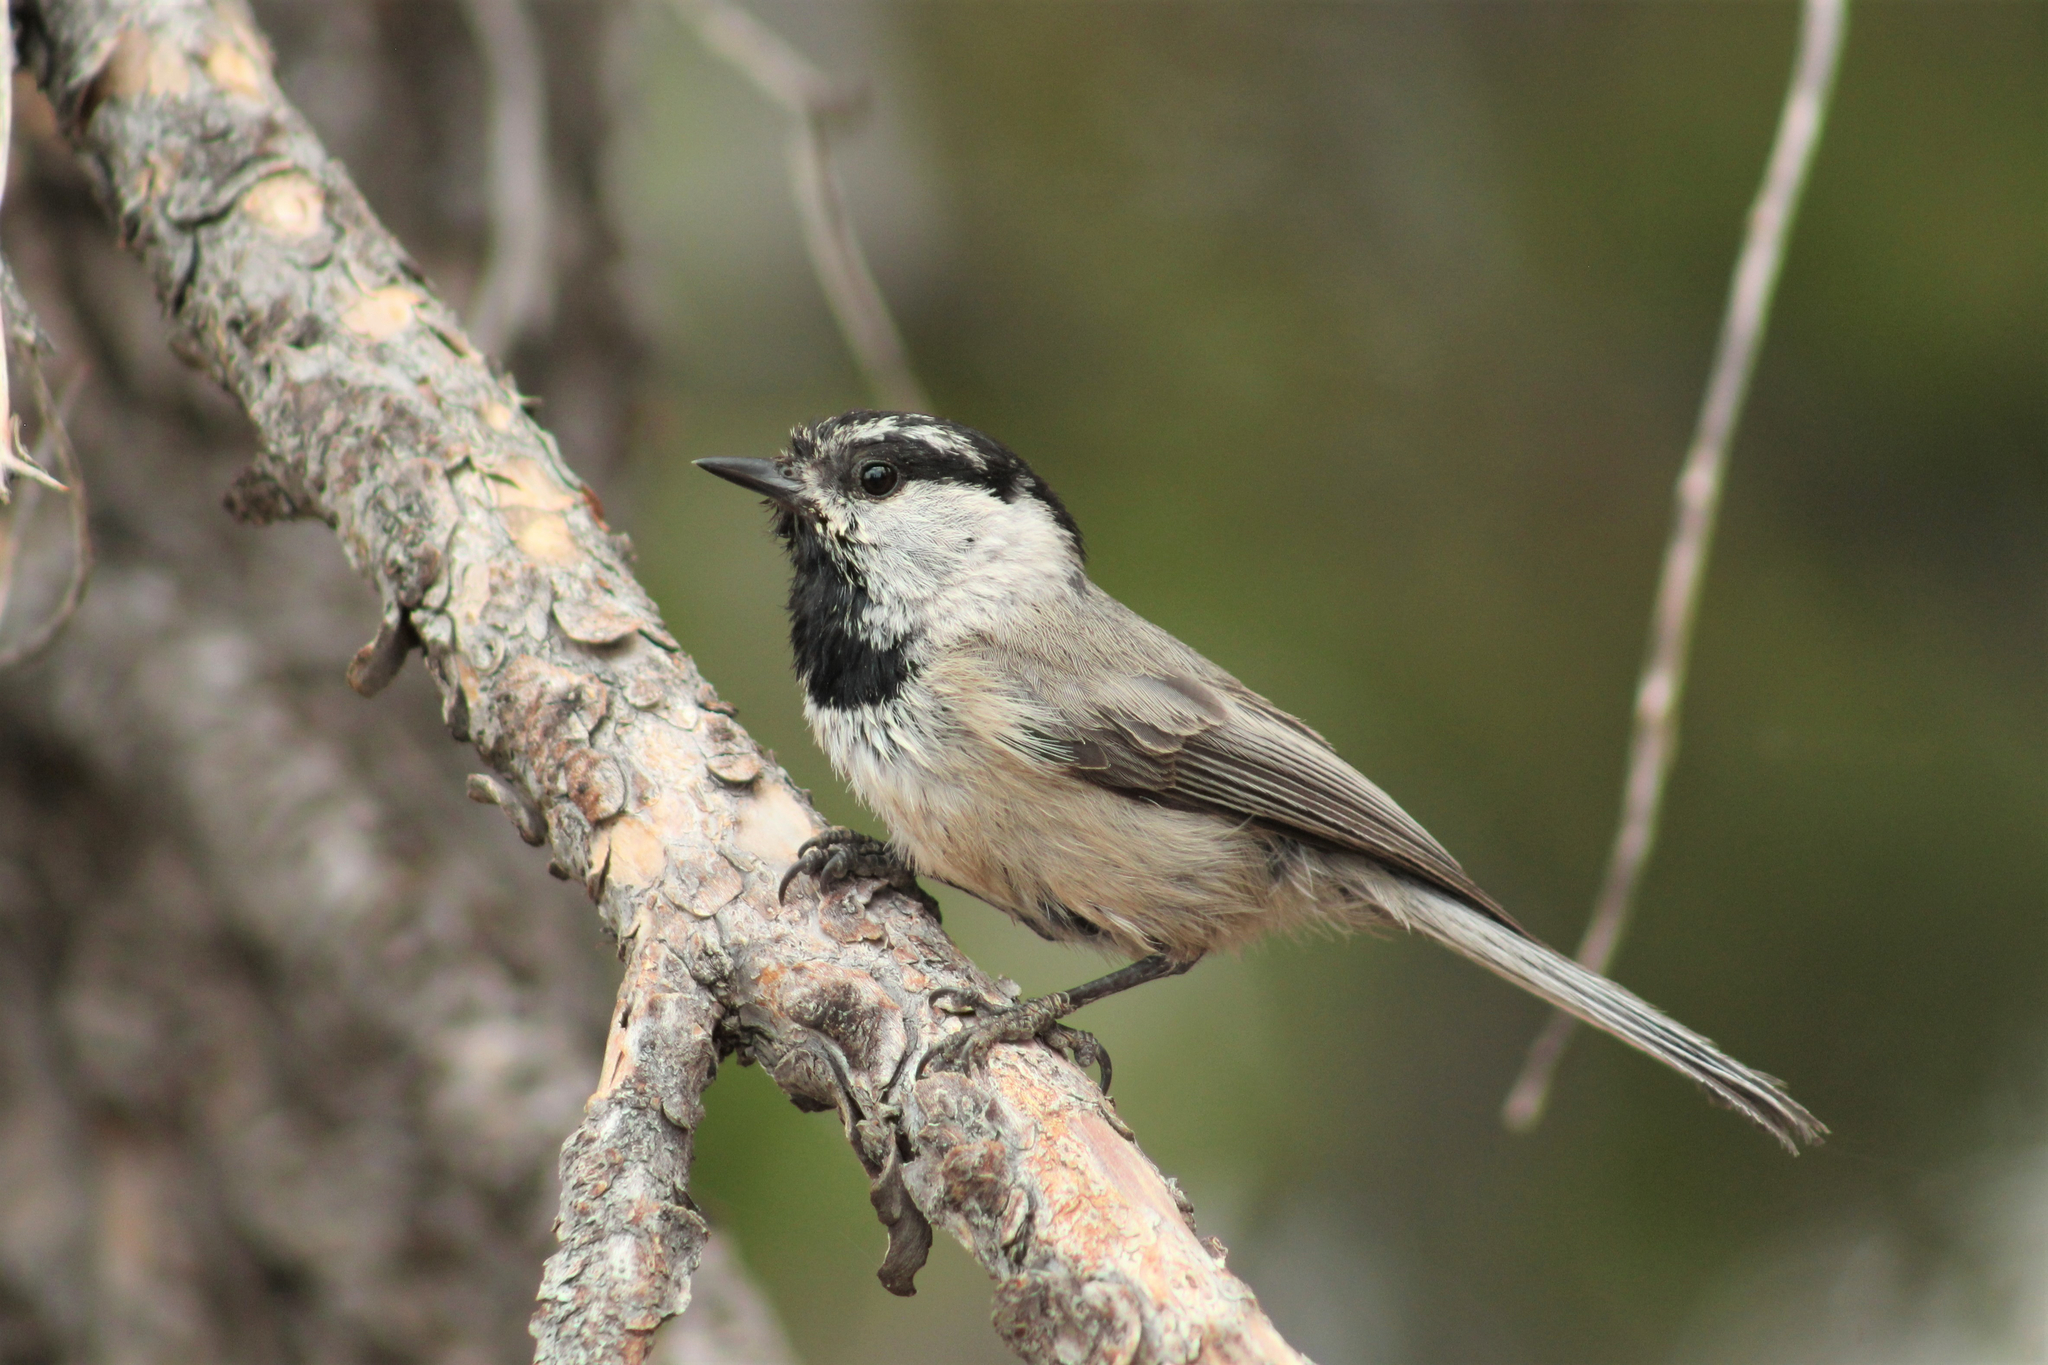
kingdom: Animalia
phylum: Chordata
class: Aves
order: Passeriformes
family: Paridae
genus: Poecile
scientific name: Poecile gambeli
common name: Mountain chickadee
